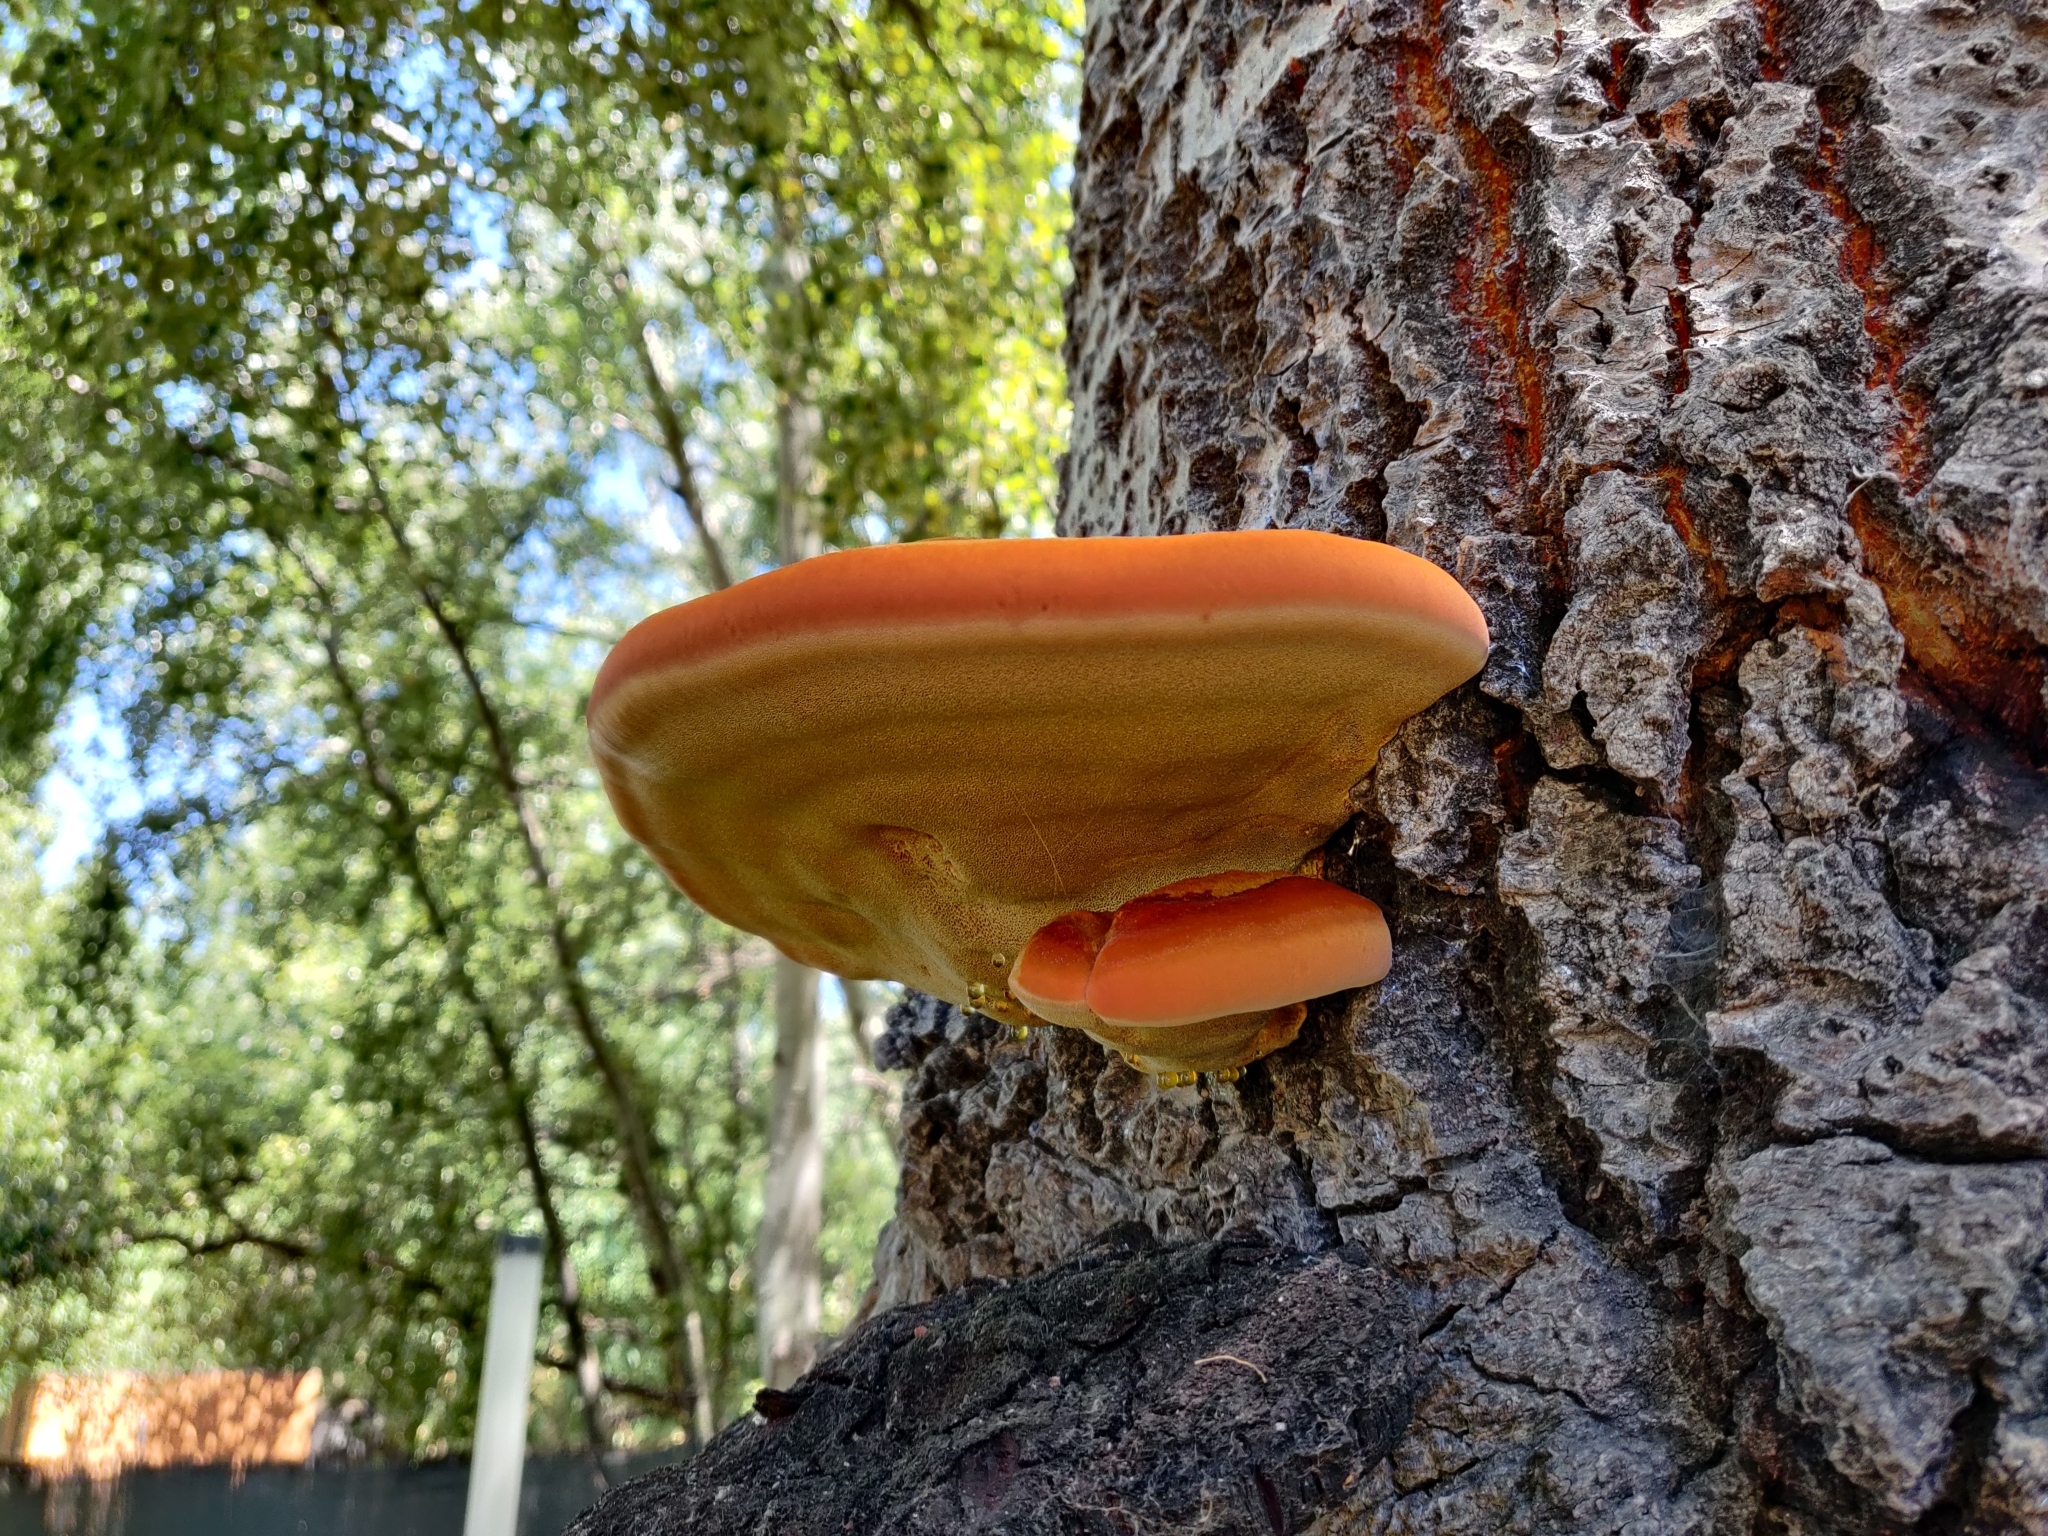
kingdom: Fungi
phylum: Basidiomycota
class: Agaricomycetes
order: Hymenochaetales
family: Hymenochaetaceae
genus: Inonotus
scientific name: Inonotus hispidus
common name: Shaggy bracket
